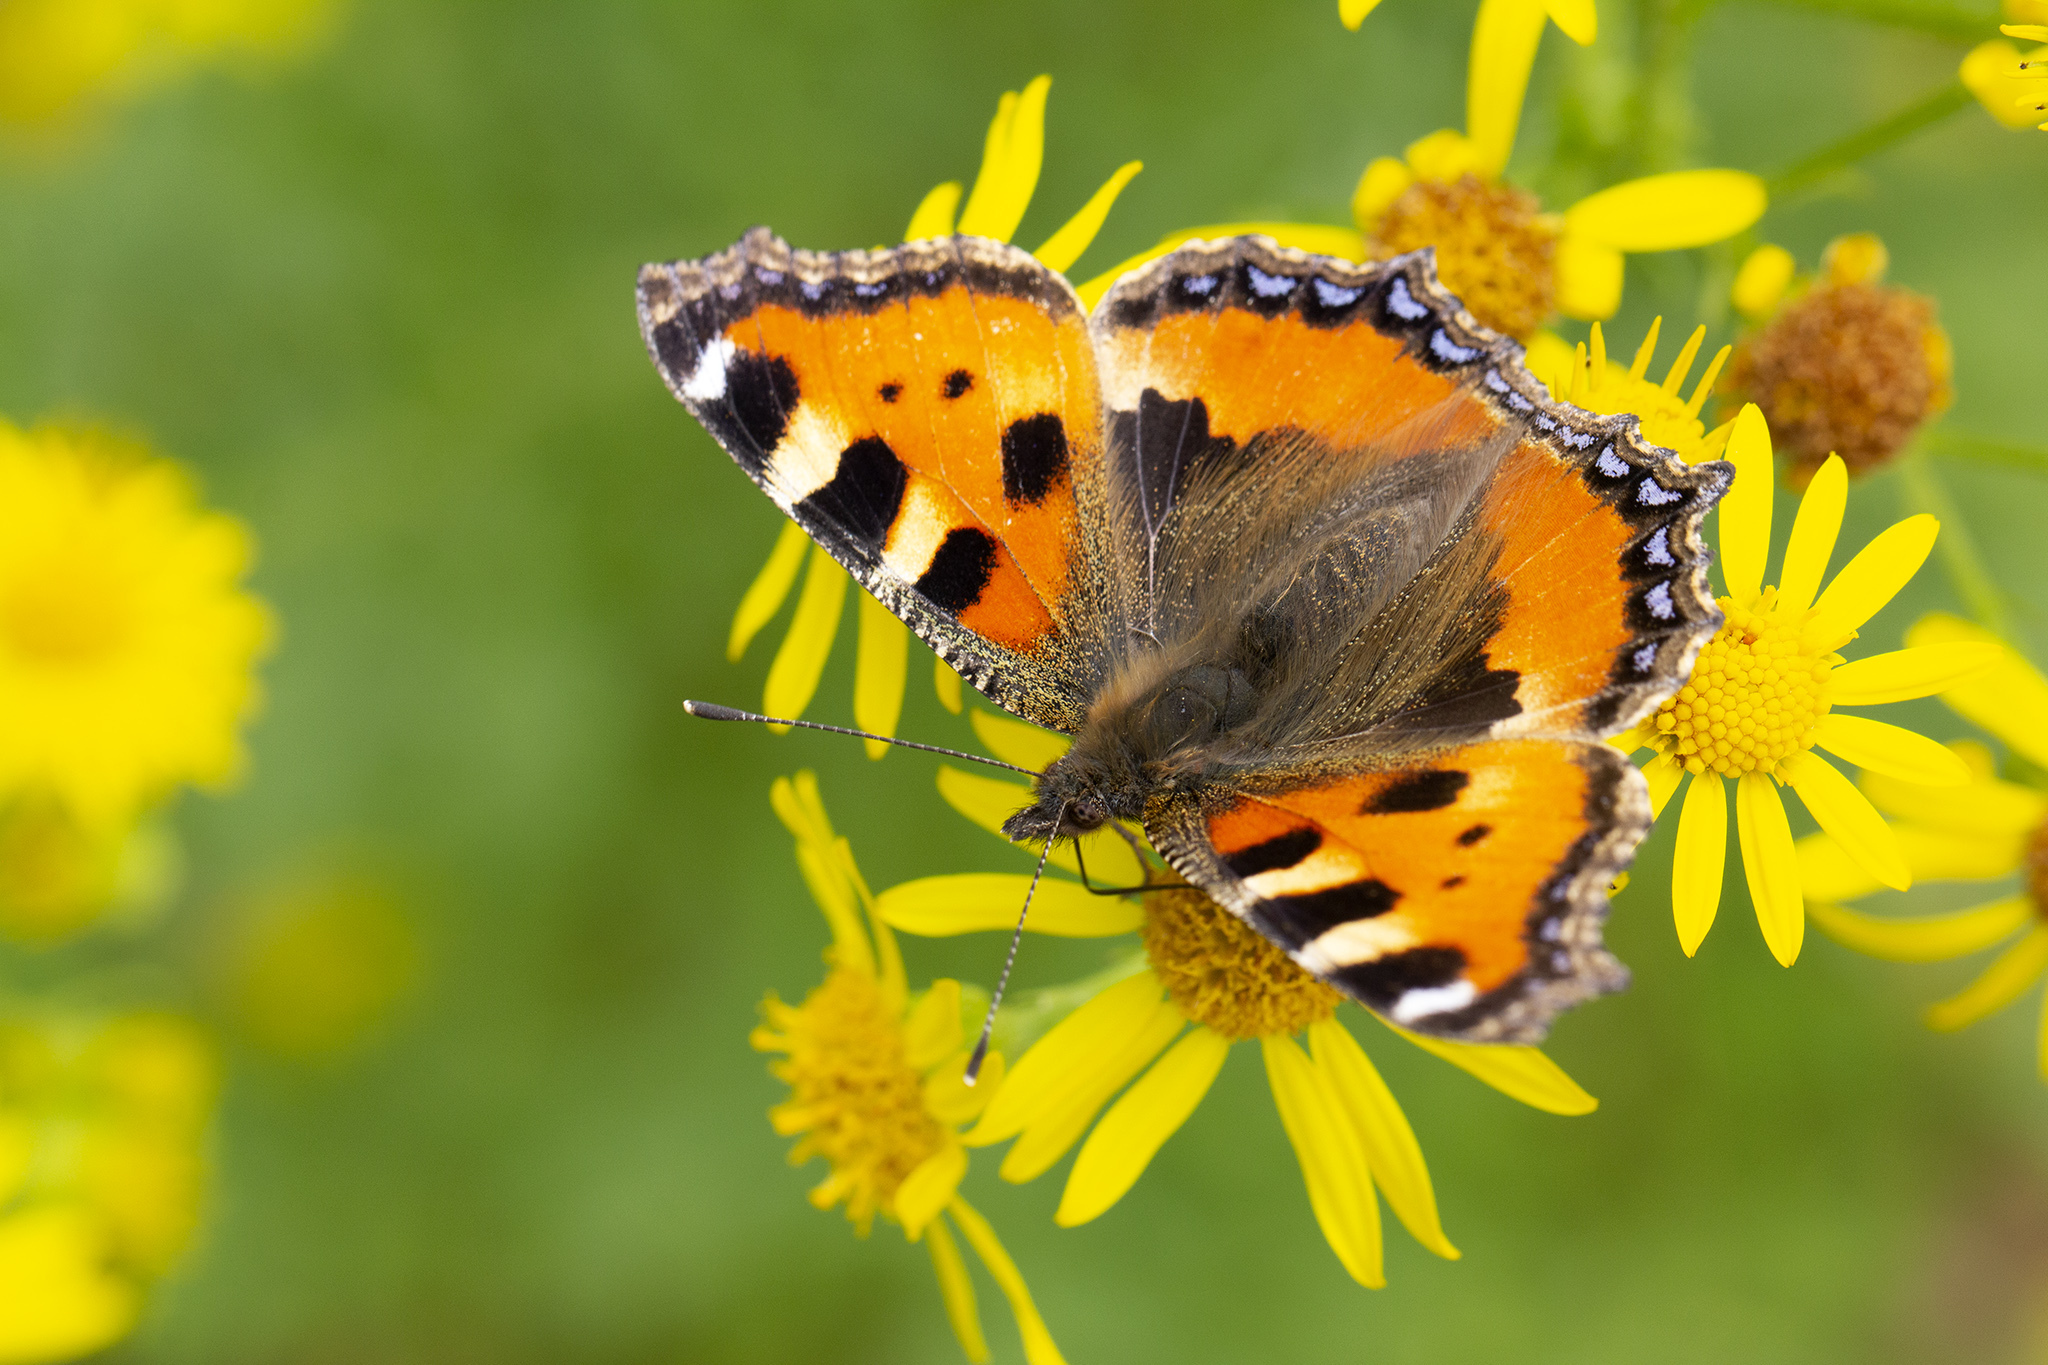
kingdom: Animalia
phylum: Arthropoda
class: Insecta
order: Lepidoptera
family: Nymphalidae
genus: Aglais
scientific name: Aglais urticae
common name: Small tortoiseshell
